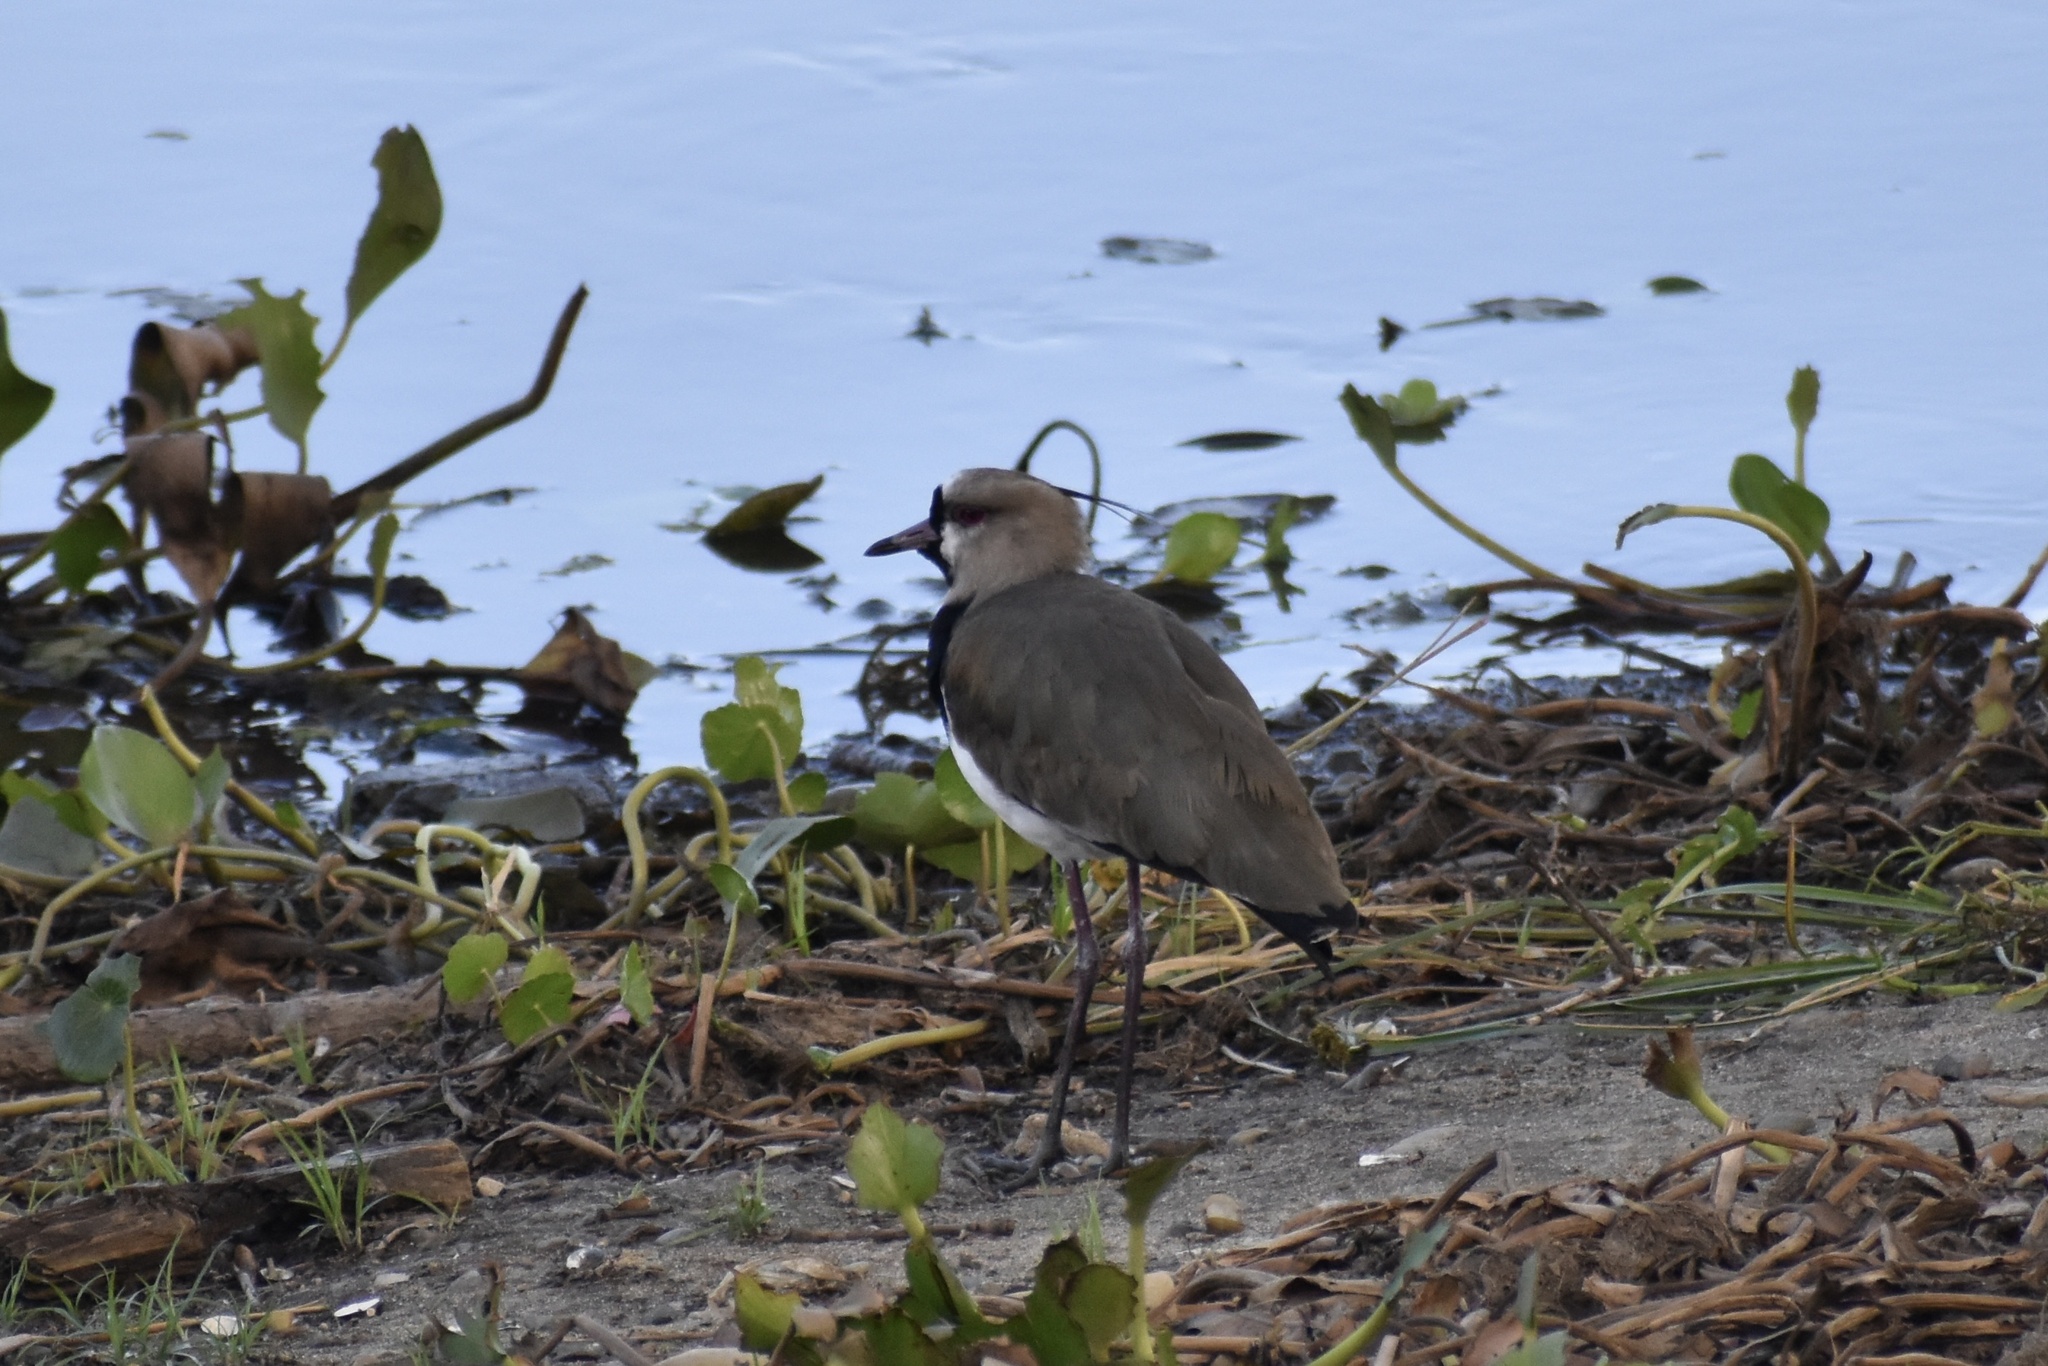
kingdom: Animalia
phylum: Chordata
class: Aves
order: Charadriiformes
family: Charadriidae
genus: Vanellus
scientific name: Vanellus chilensis
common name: Southern lapwing
